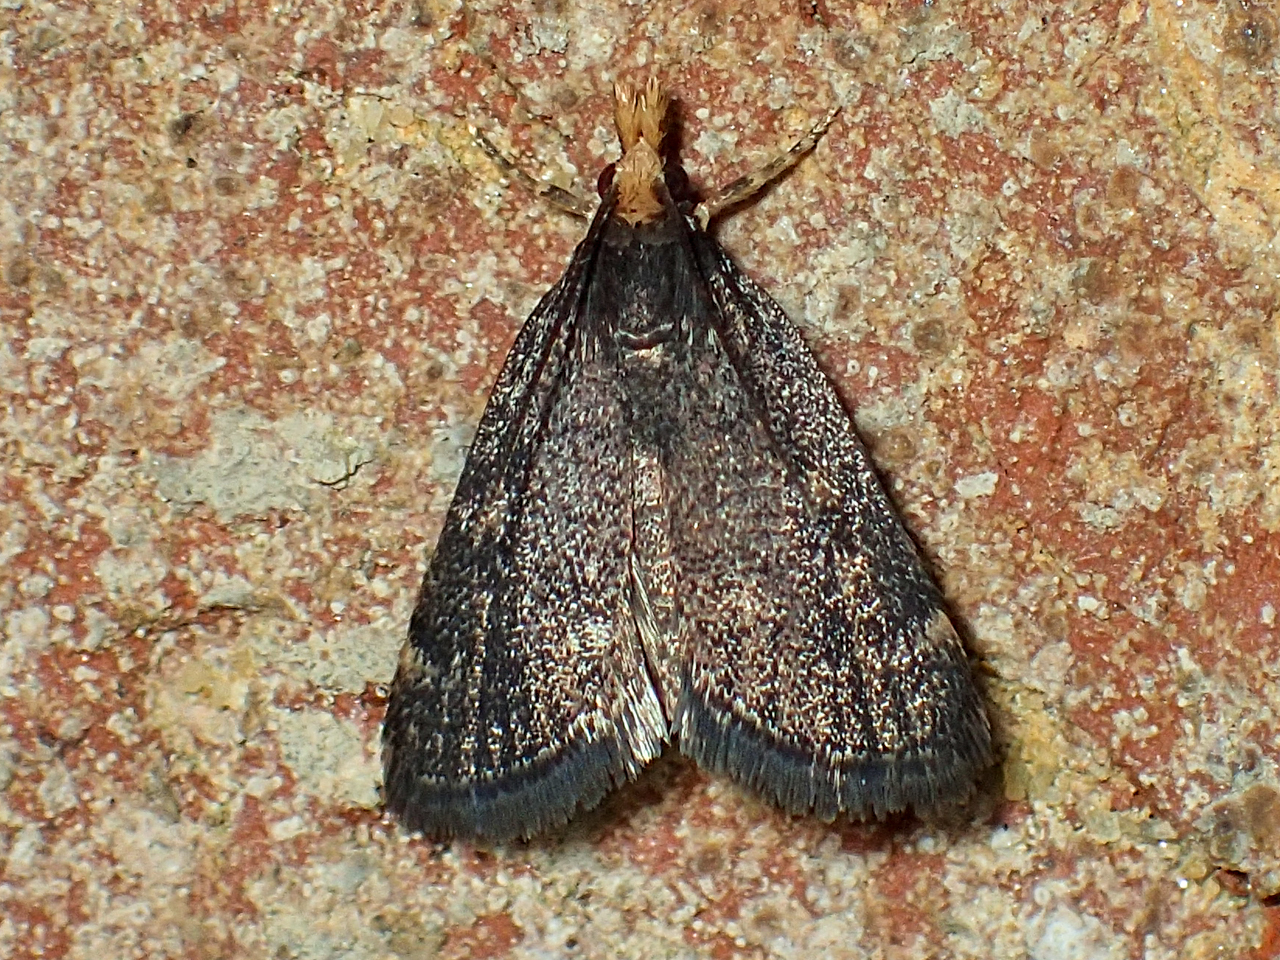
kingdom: Animalia
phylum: Arthropoda
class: Insecta
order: Lepidoptera
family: Crambidae
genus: Pyrausta
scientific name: Pyrausta merrickalis
